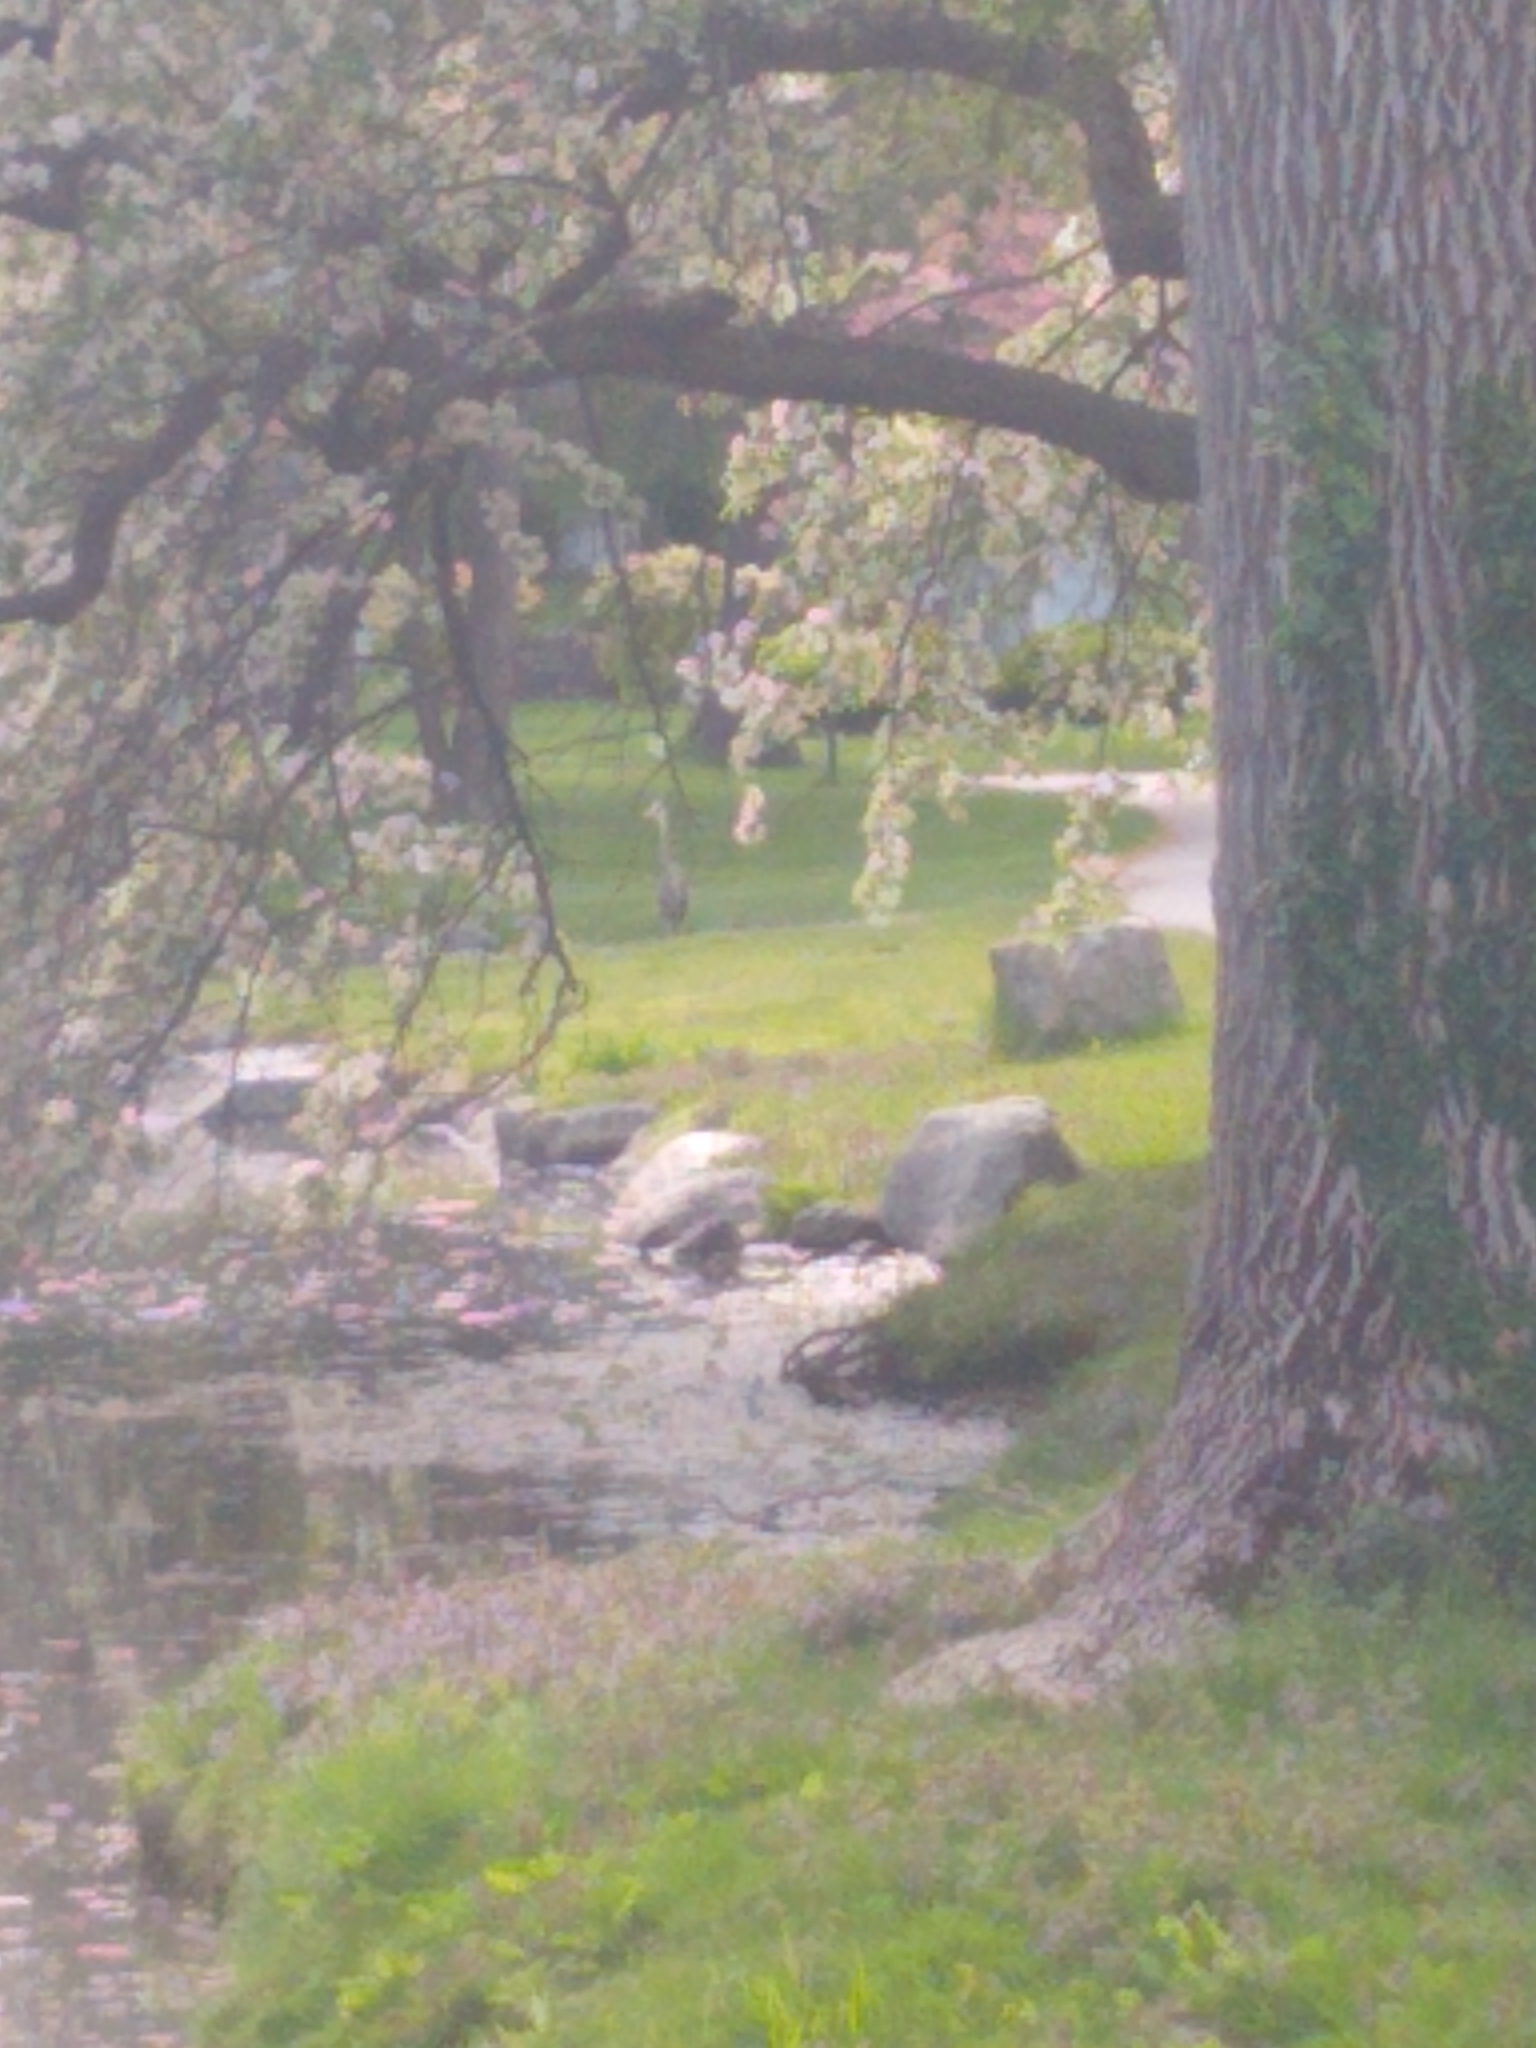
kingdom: Animalia
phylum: Chordata
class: Aves
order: Pelecaniformes
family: Ardeidae
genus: Ardea
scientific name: Ardea herodias
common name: Great blue heron
